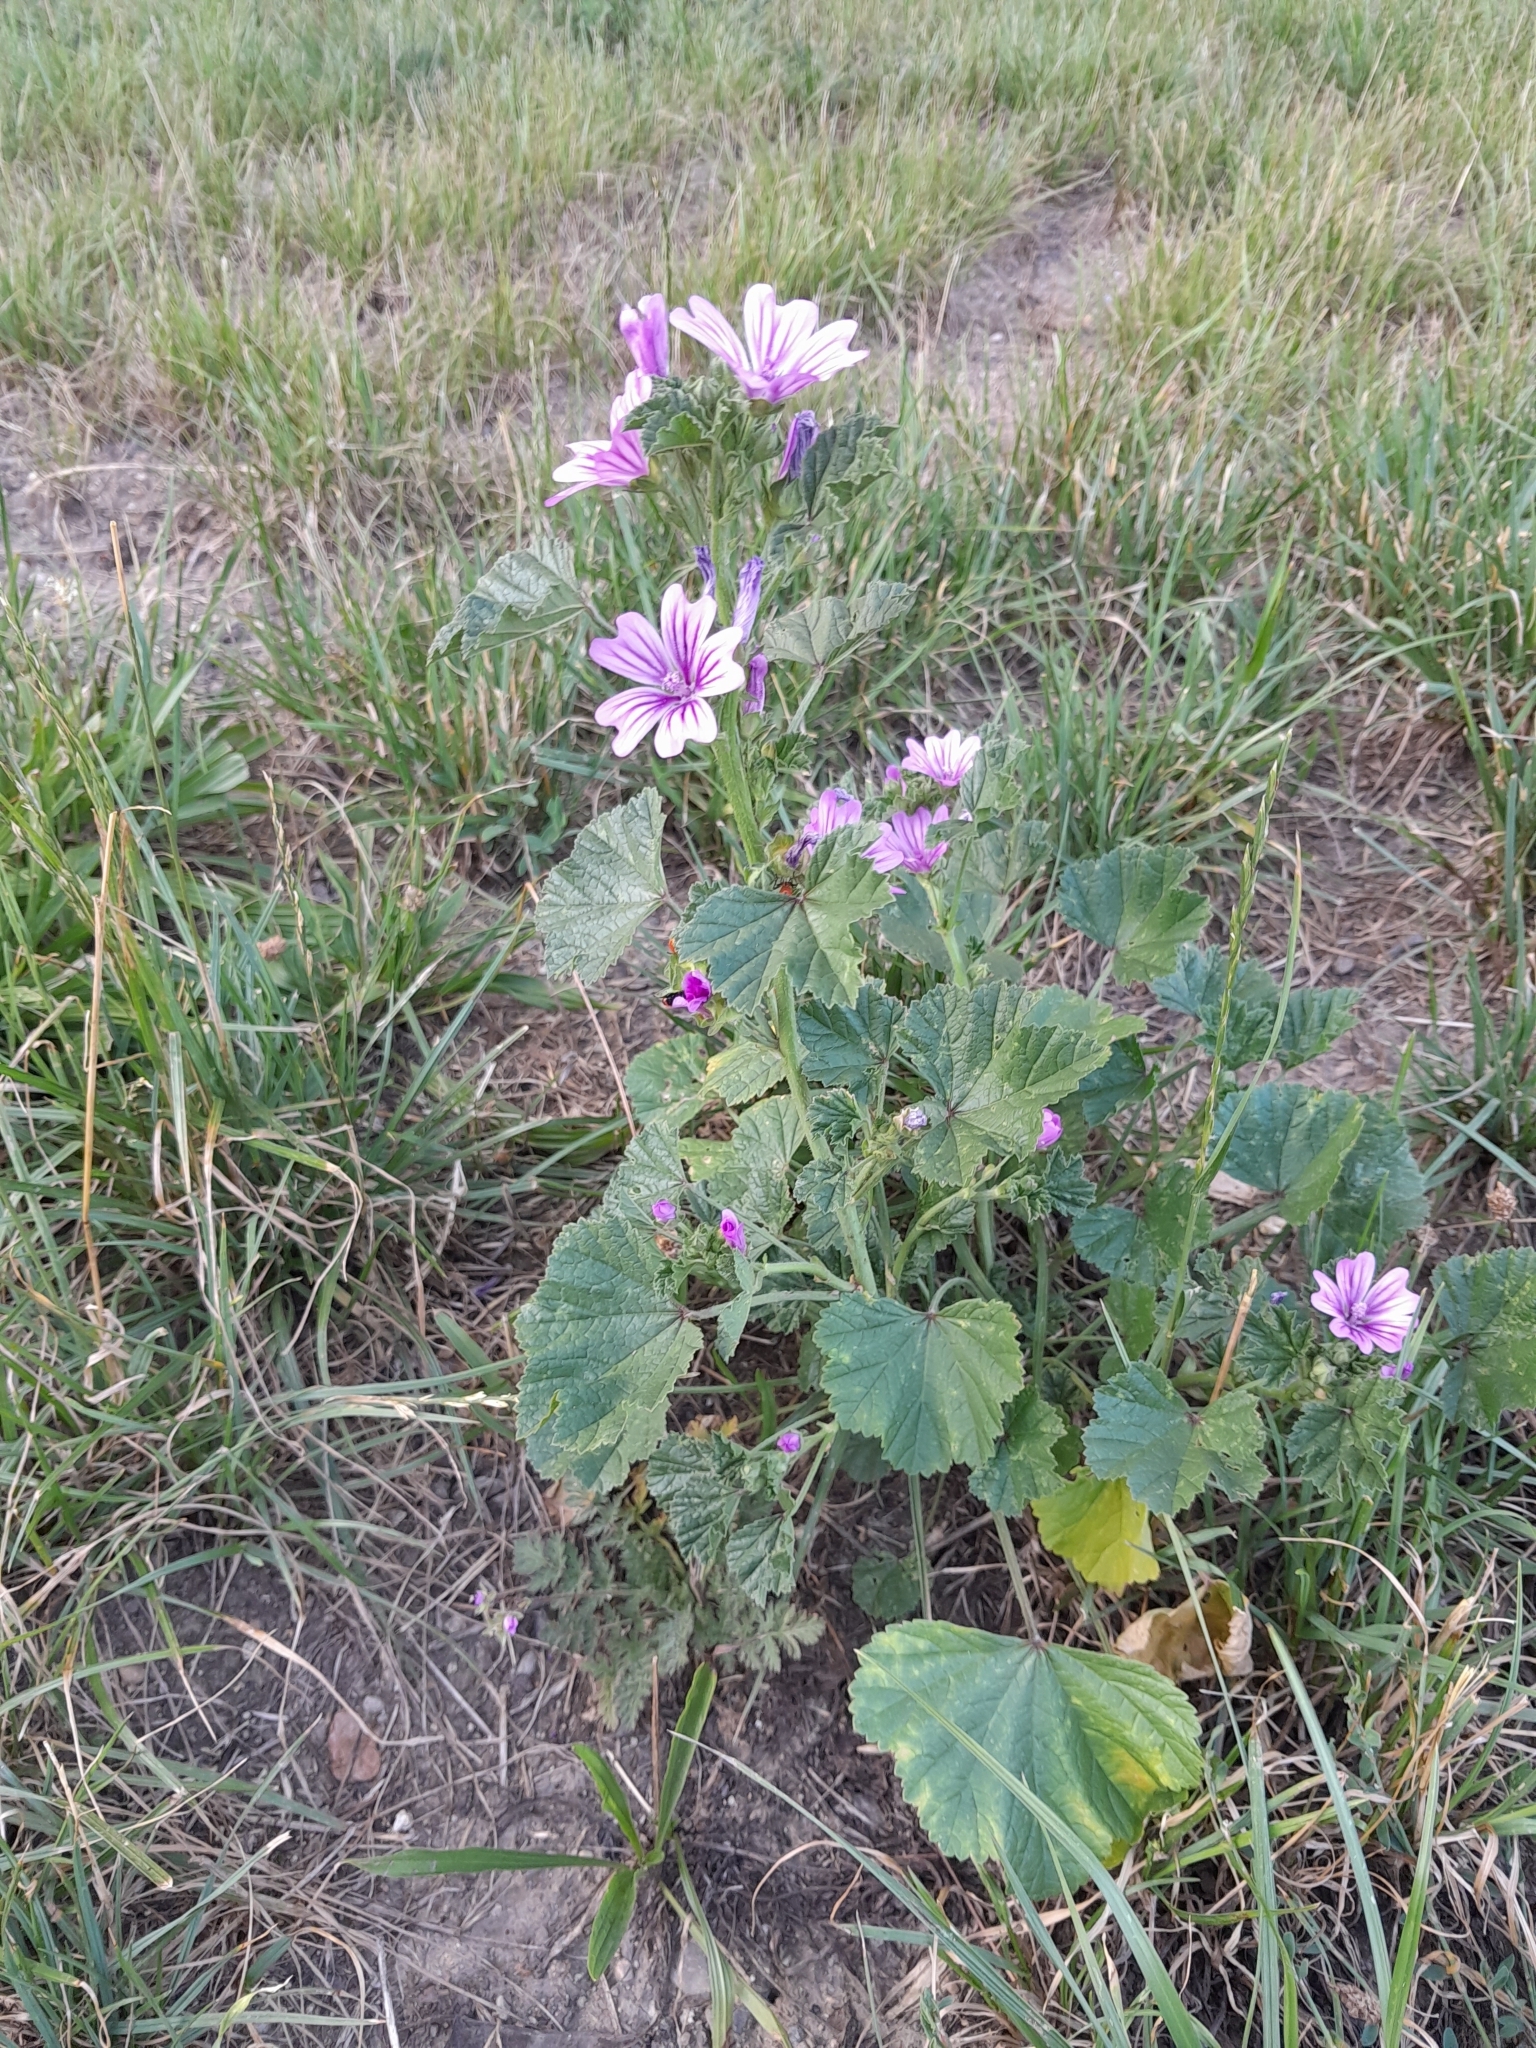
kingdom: Plantae
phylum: Tracheophyta
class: Magnoliopsida
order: Malvales
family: Malvaceae
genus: Malva
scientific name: Malva sylvestris
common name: Common mallow
